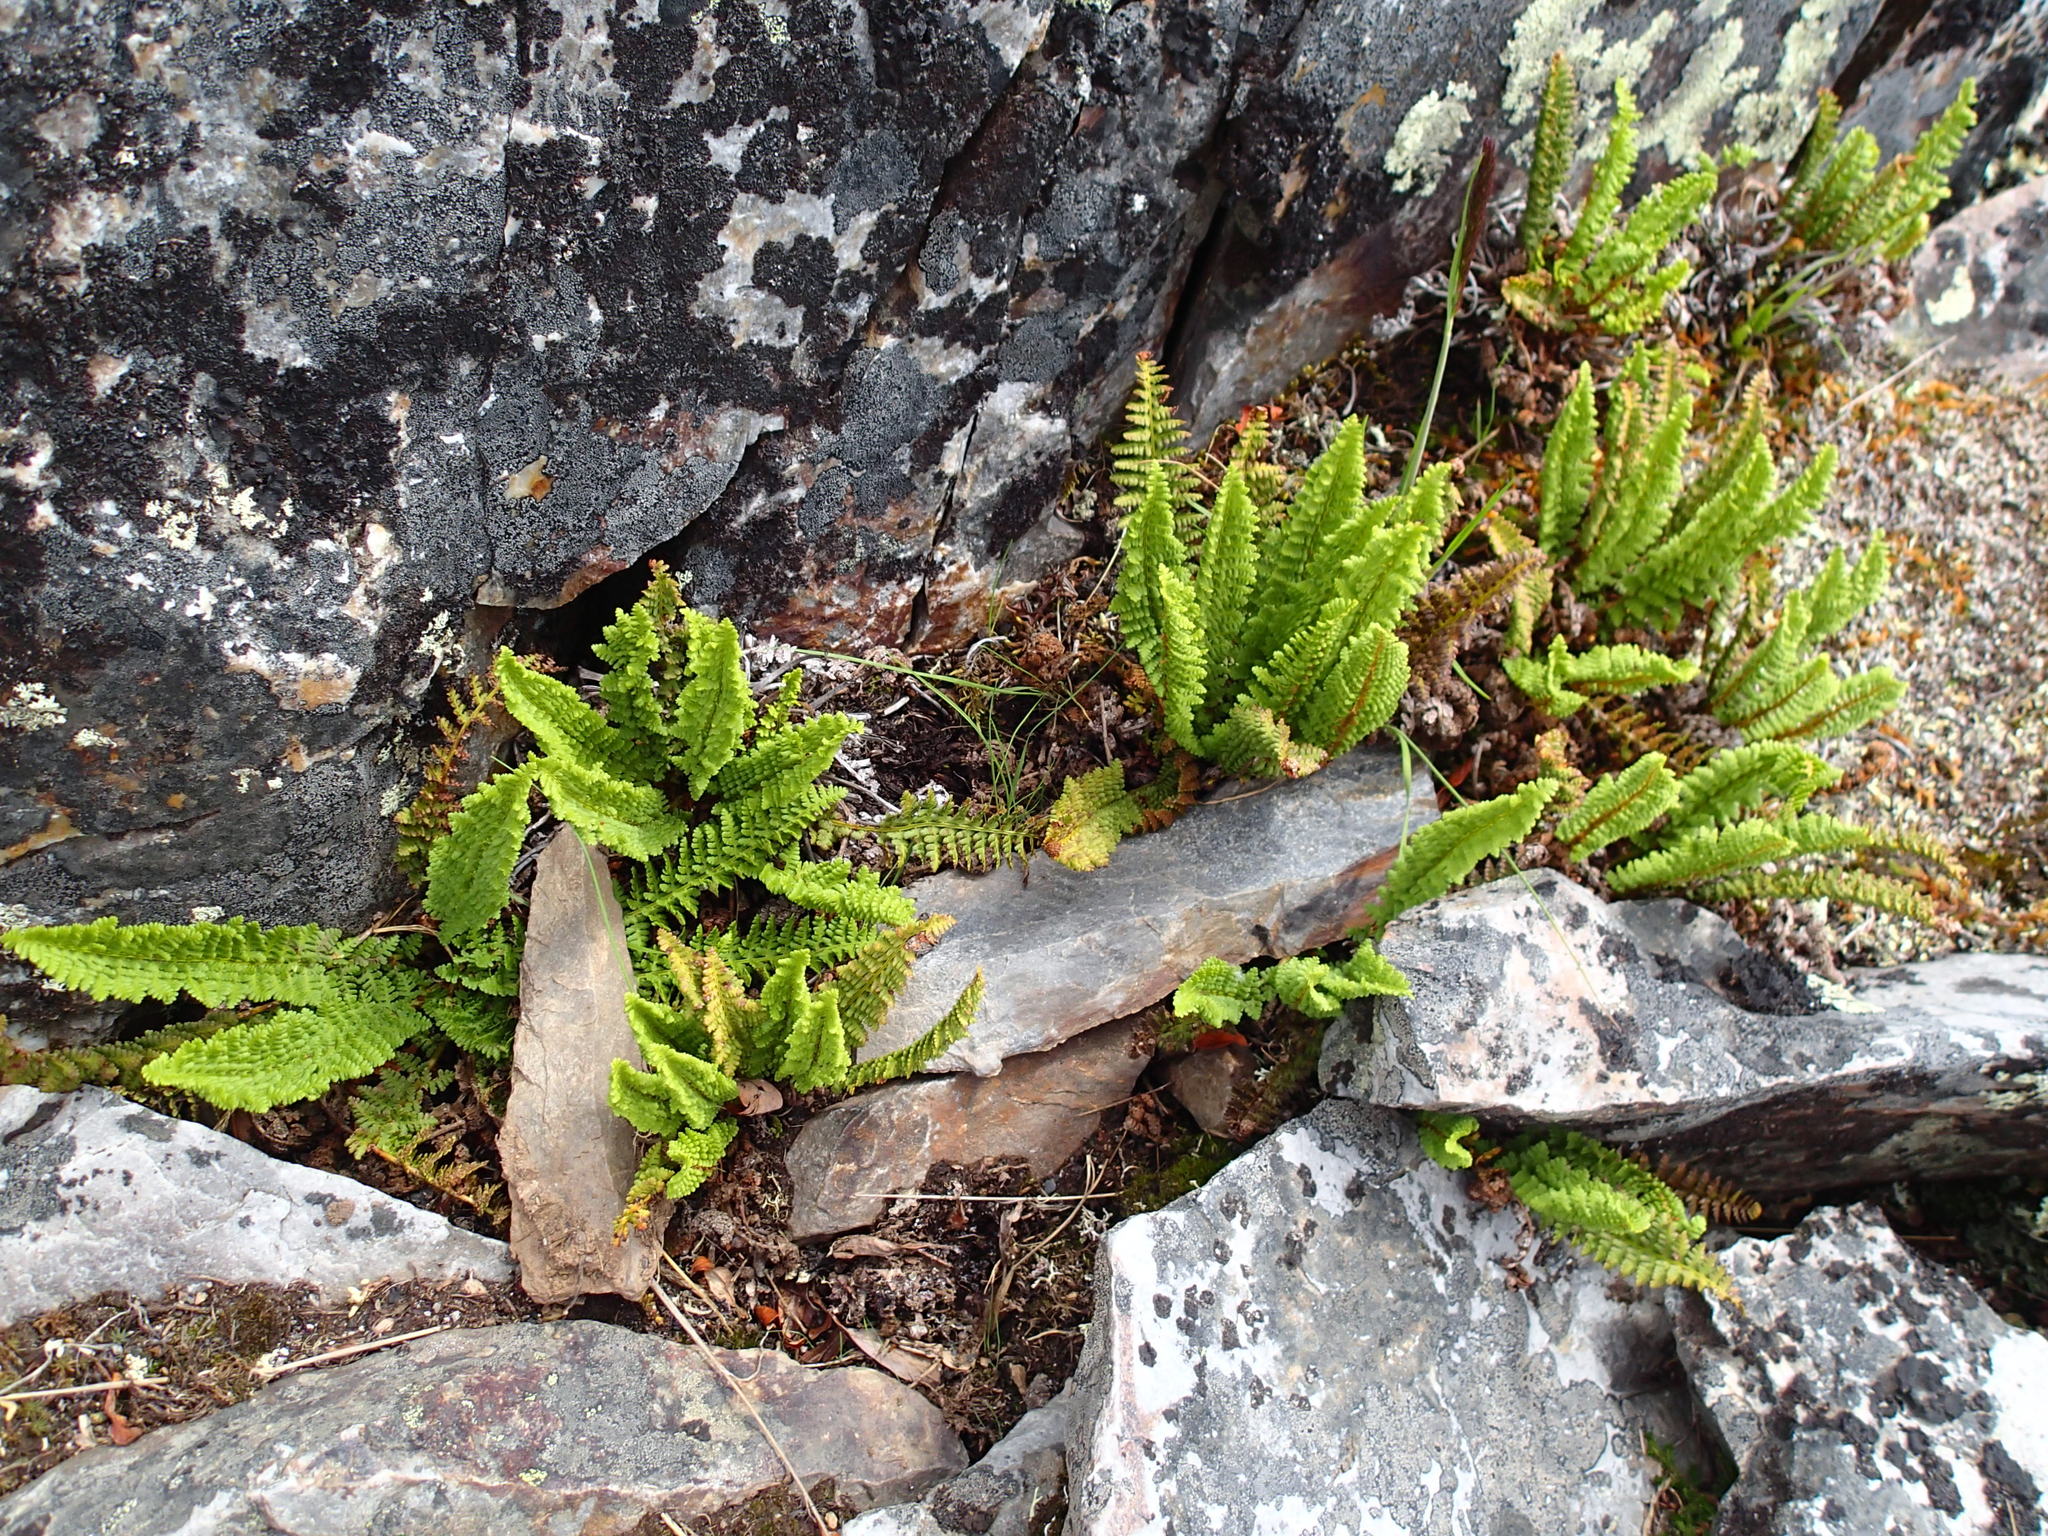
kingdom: Plantae
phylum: Tracheophyta
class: Polypodiopsida
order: Polypodiales
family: Dryopteridaceae
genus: Dryopteris
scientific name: Dryopteris fragrans
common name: Fragrant wood fern
